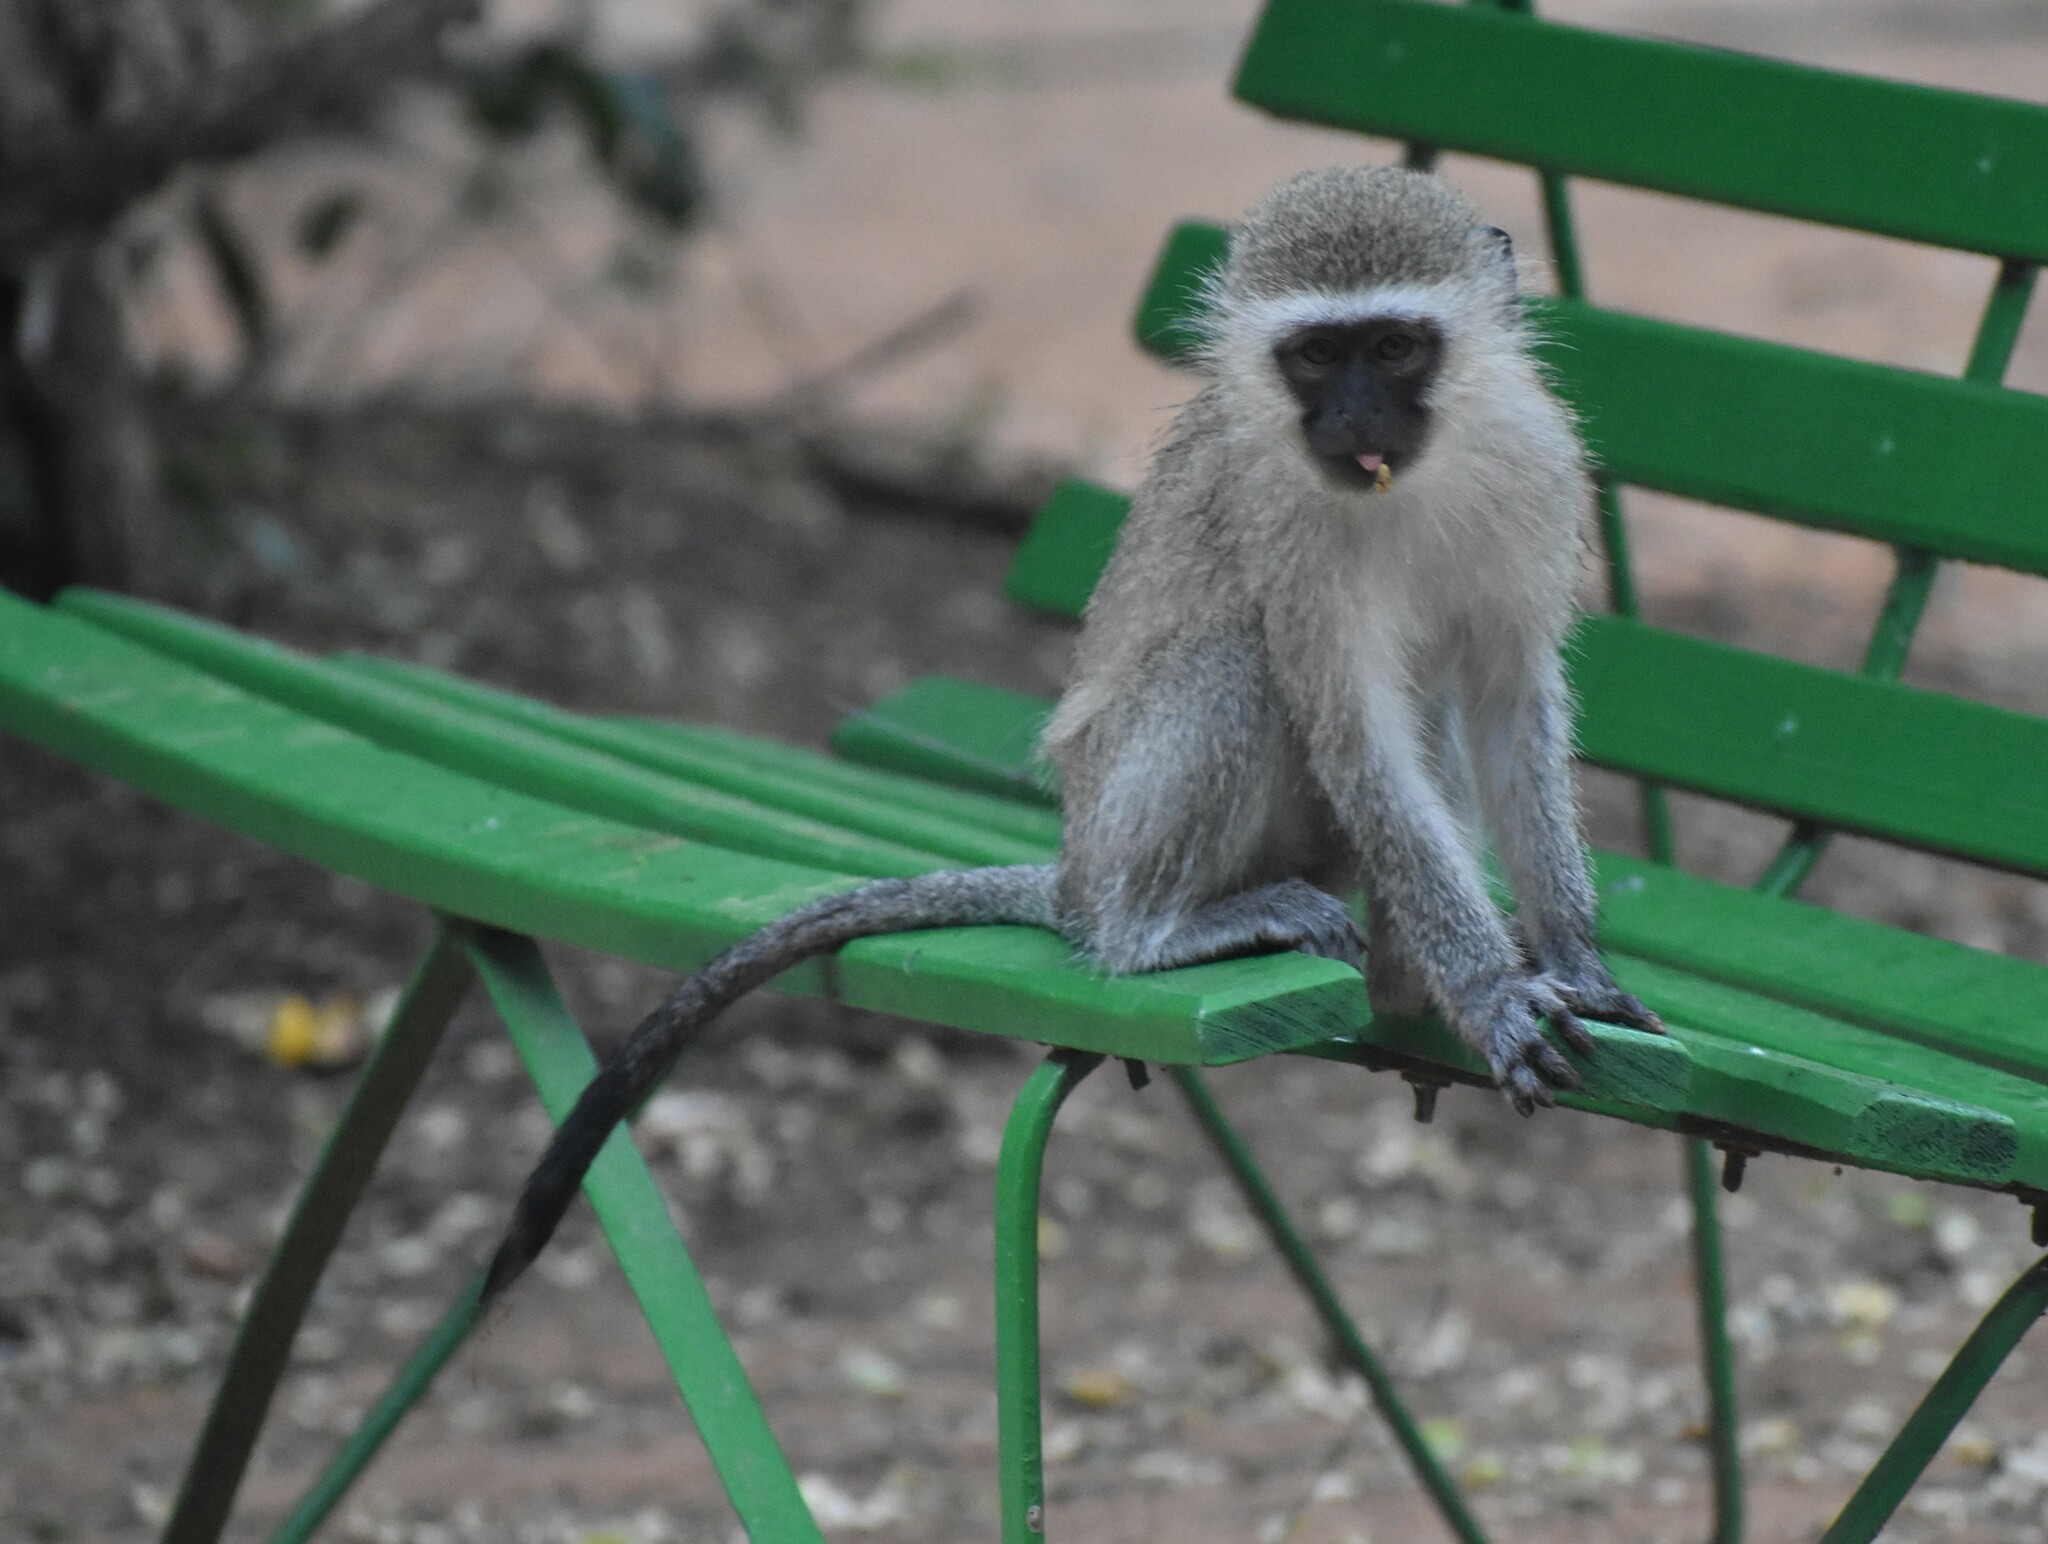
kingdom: Animalia
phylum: Chordata
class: Mammalia
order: Primates
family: Cercopithecidae
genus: Chlorocebus
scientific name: Chlorocebus pygerythrus
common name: Vervet monkey
